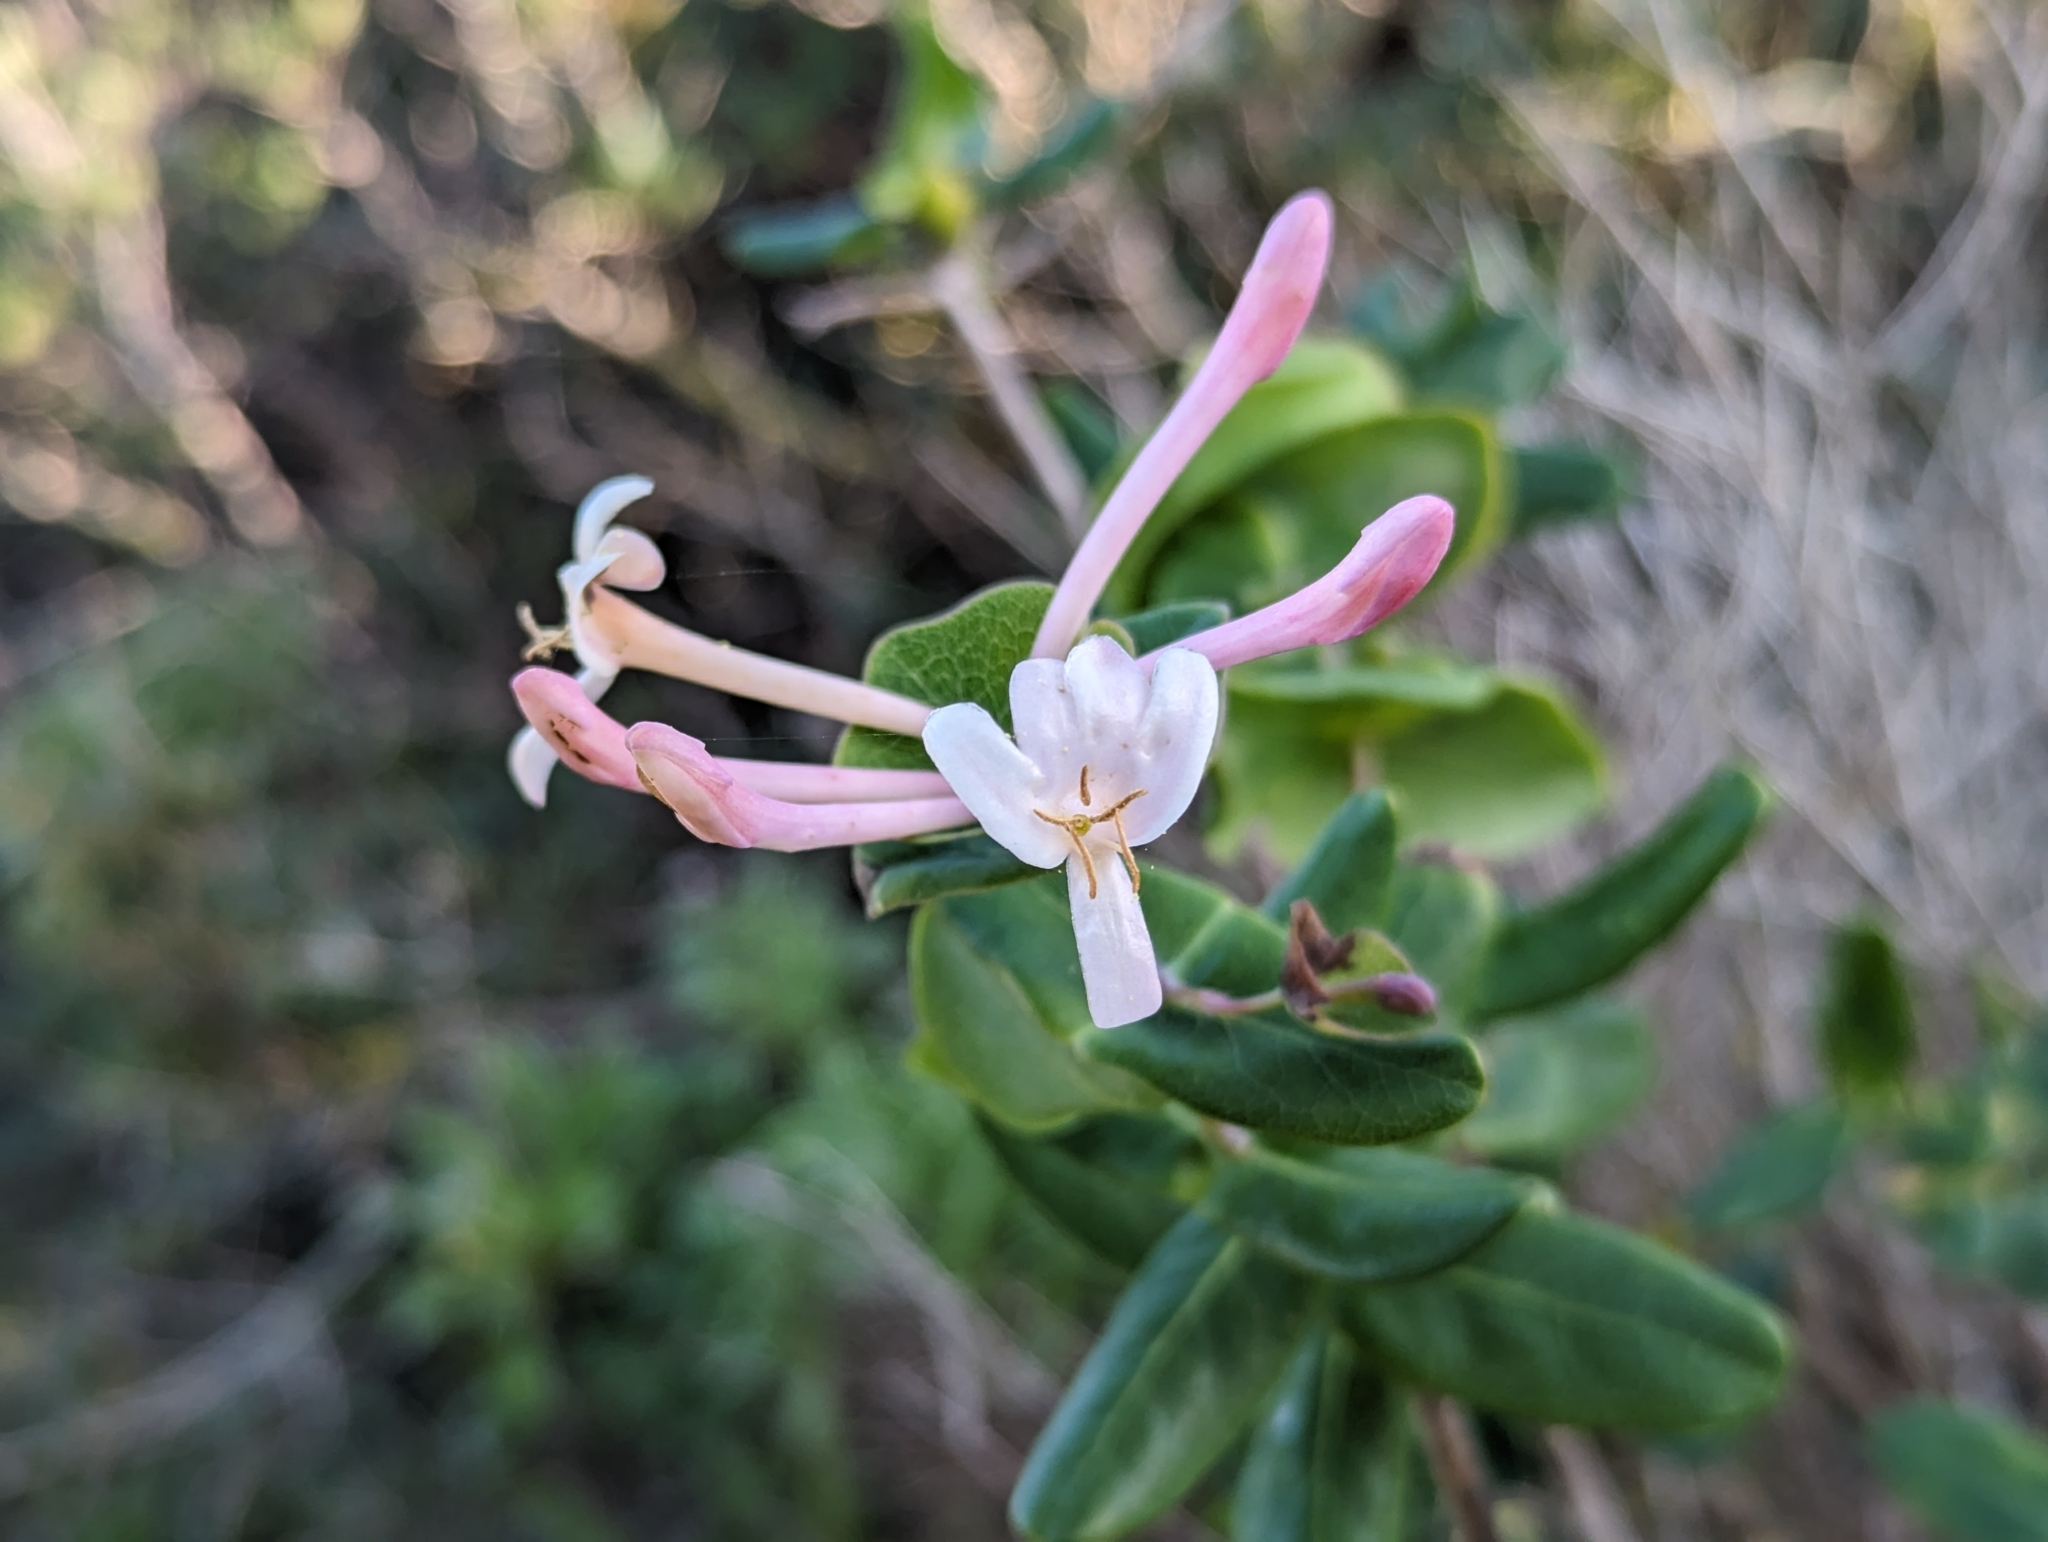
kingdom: Plantae
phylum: Tracheophyta
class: Magnoliopsida
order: Dipsacales
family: Caprifoliaceae
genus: Lonicera
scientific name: Lonicera implexa
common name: Minorca honeysuckle
